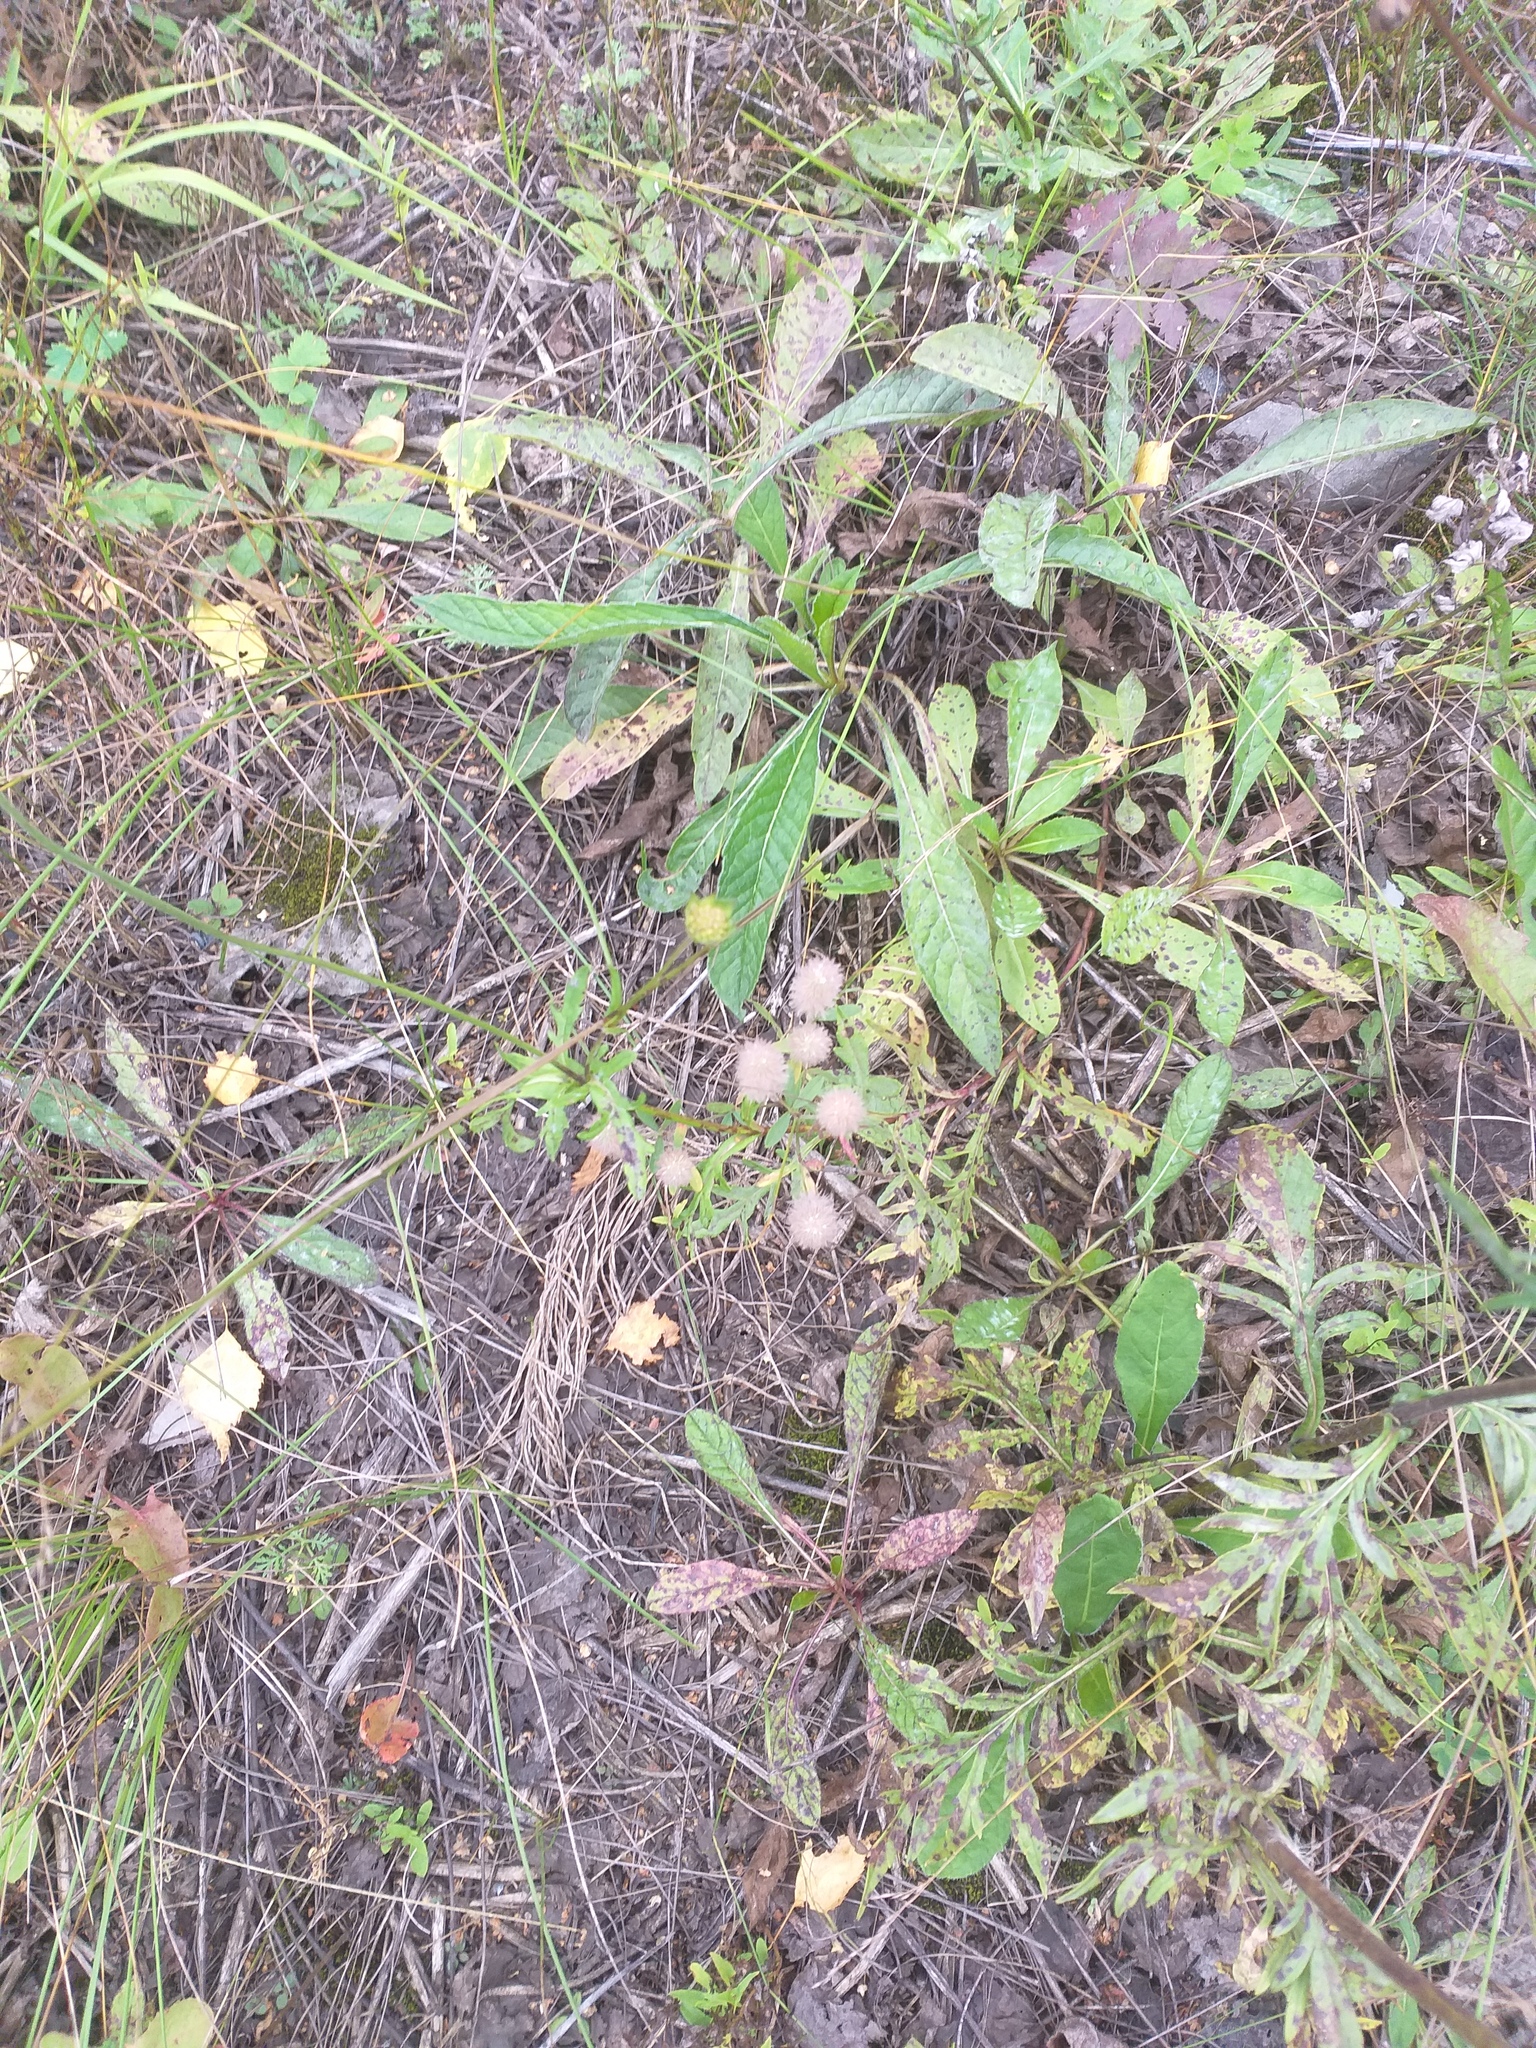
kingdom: Plantae
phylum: Tracheophyta
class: Magnoliopsida
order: Fabales
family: Fabaceae
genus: Trifolium
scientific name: Trifolium arvense
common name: Hare's-foot clover
